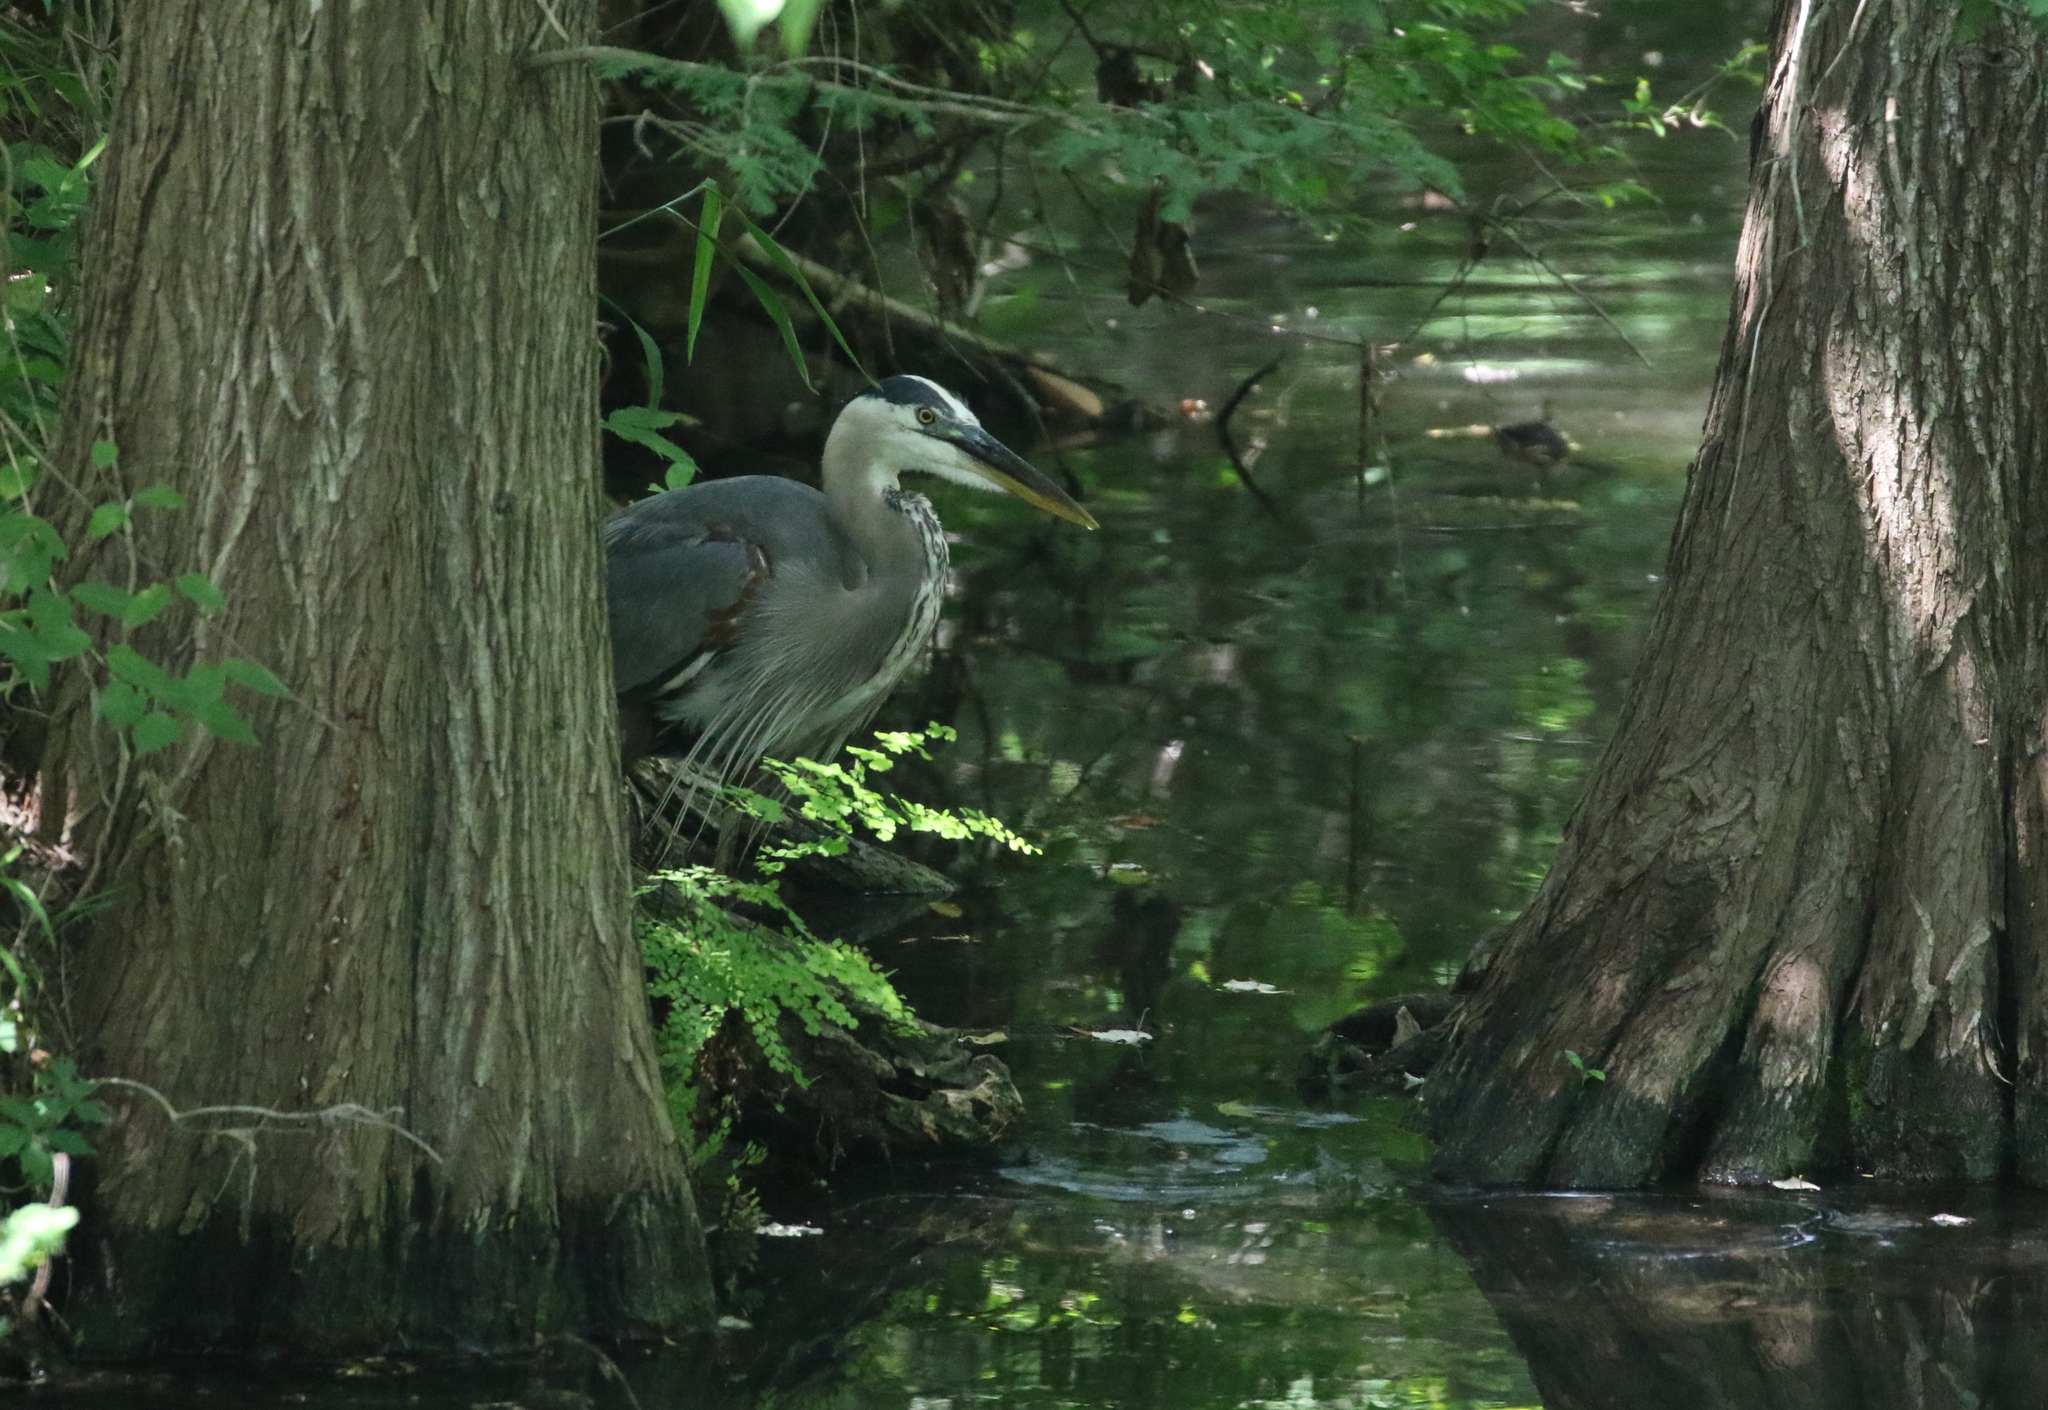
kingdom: Animalia
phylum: Chordata
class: Aves
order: Pelecaniformes
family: Ardeidae
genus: Ardea
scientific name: Ardea herodias
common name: Great blue heron
